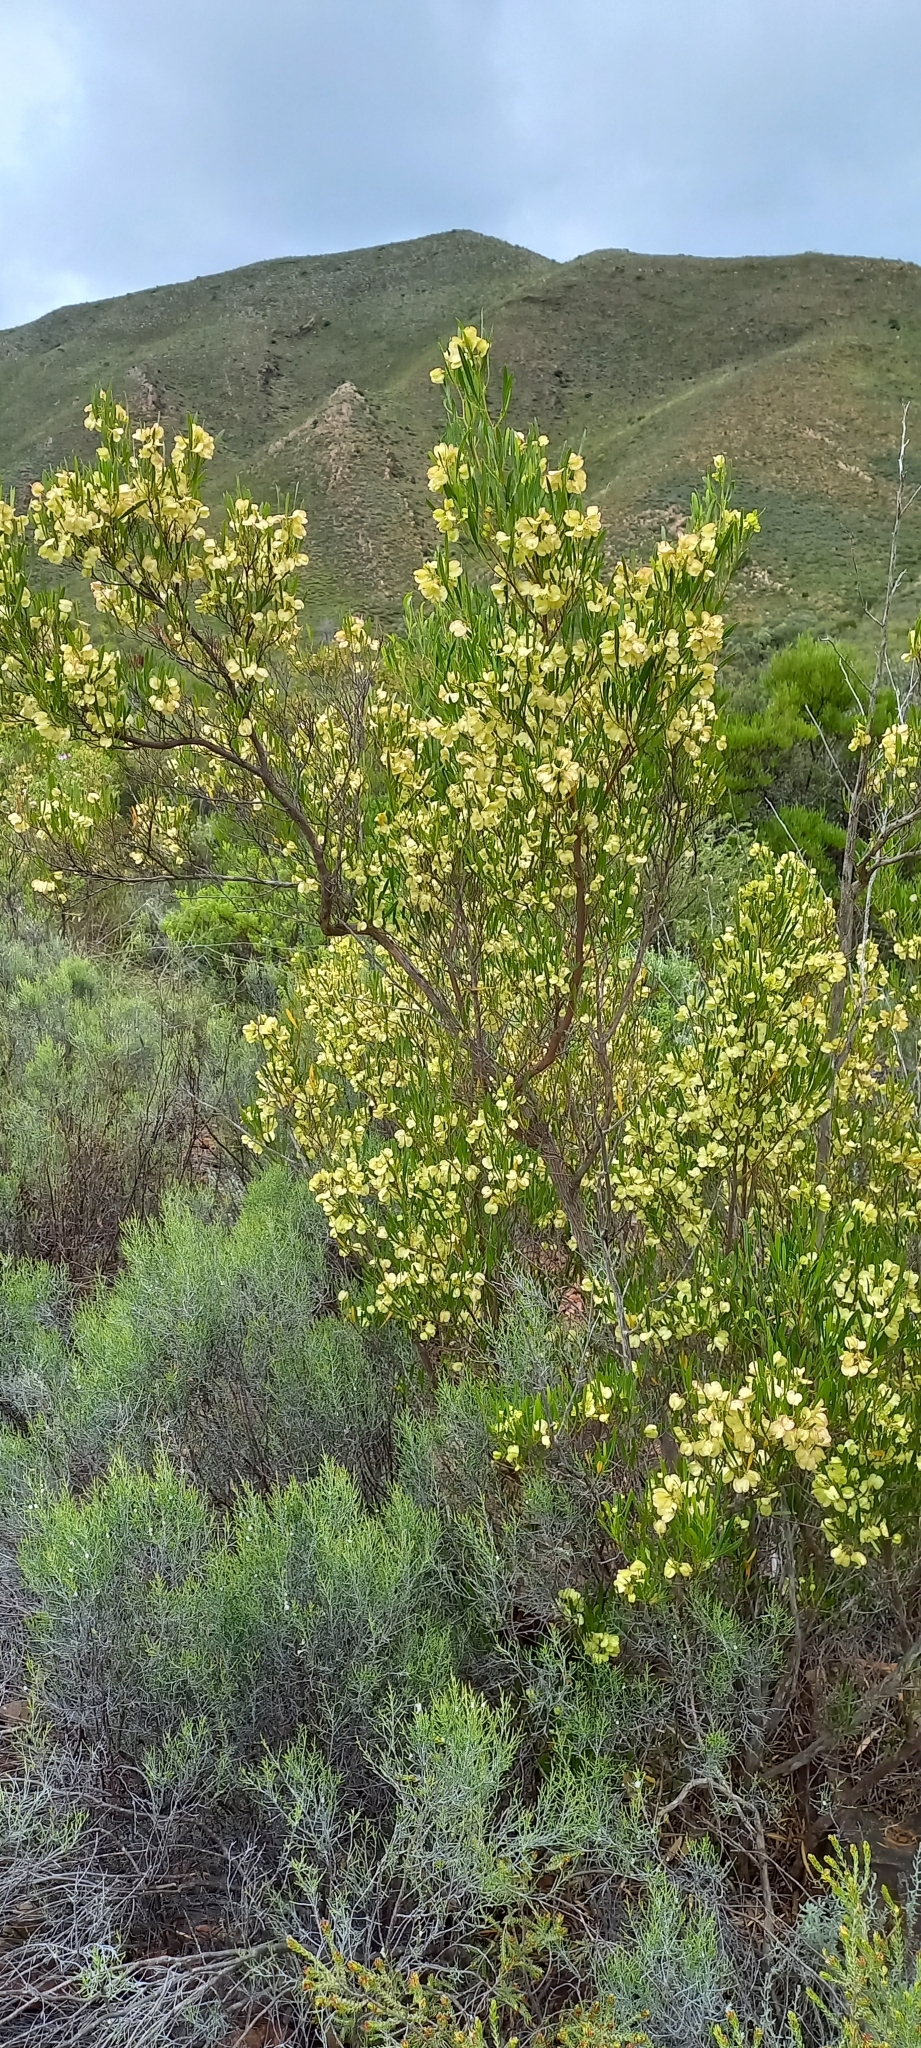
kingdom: Plantae
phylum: Tracheophyta
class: Magnoliopsida
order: Sapindales
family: Sapindaceae
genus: Dodonaea
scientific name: Dodonaea viscosa
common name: Hopbush
